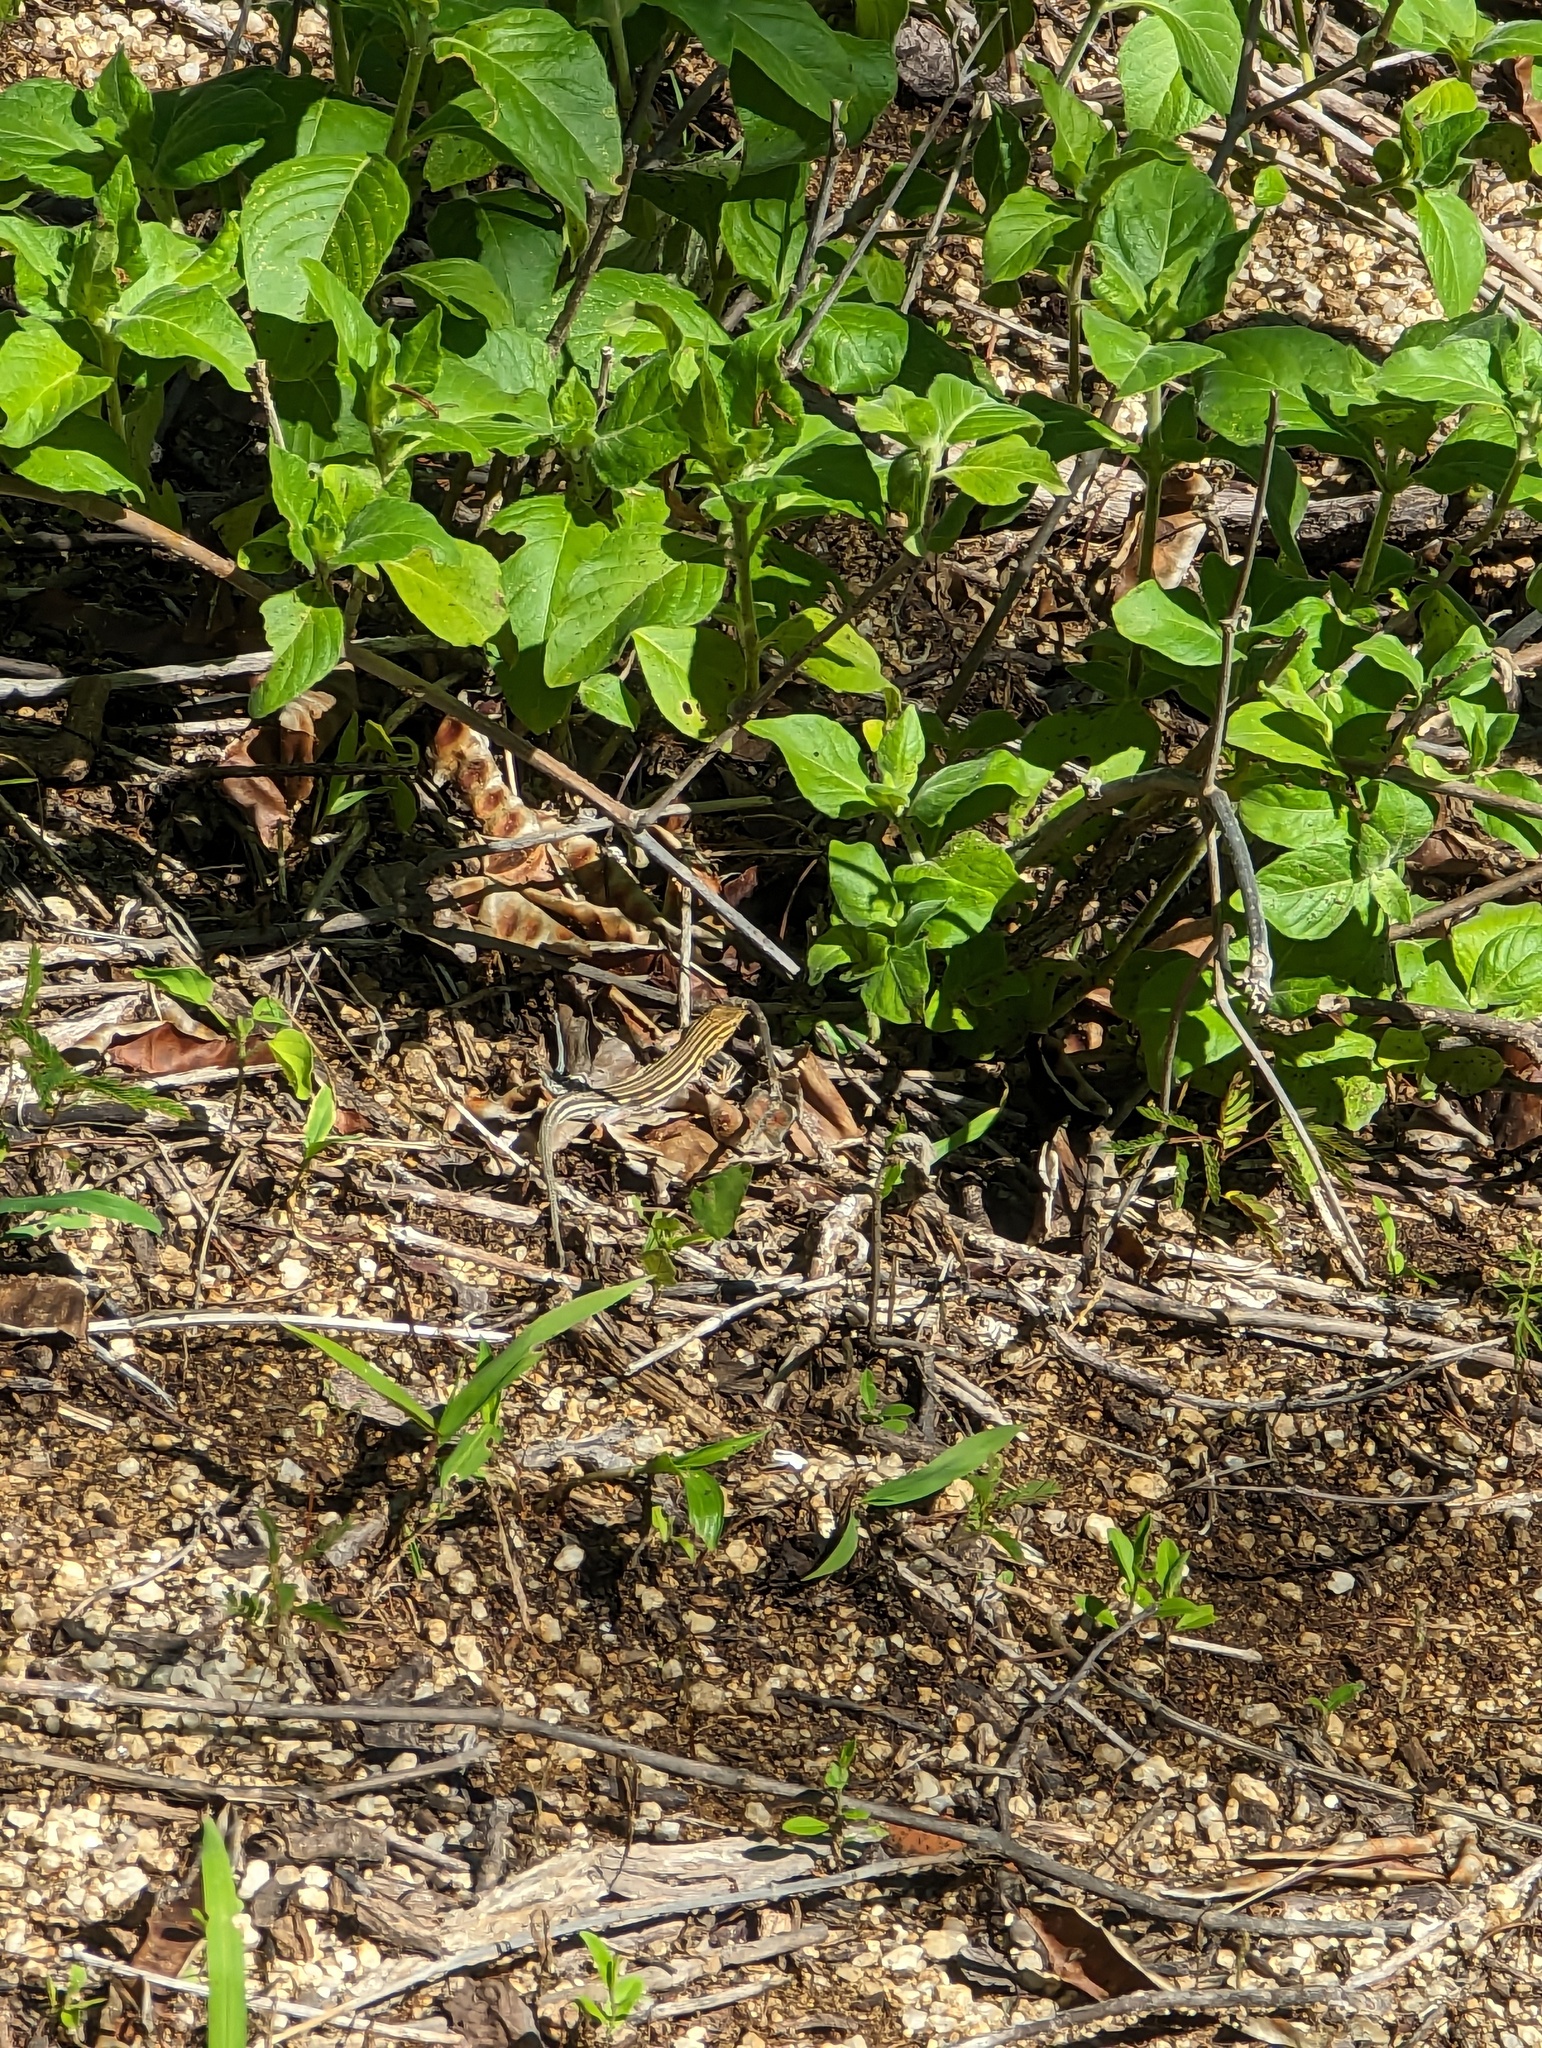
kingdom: Animalia
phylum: Chordata
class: Squamata
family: Teiidae
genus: Aspidoscelis
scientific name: Aspidoscelis hyperythrus
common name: Orange-throated race-runner
